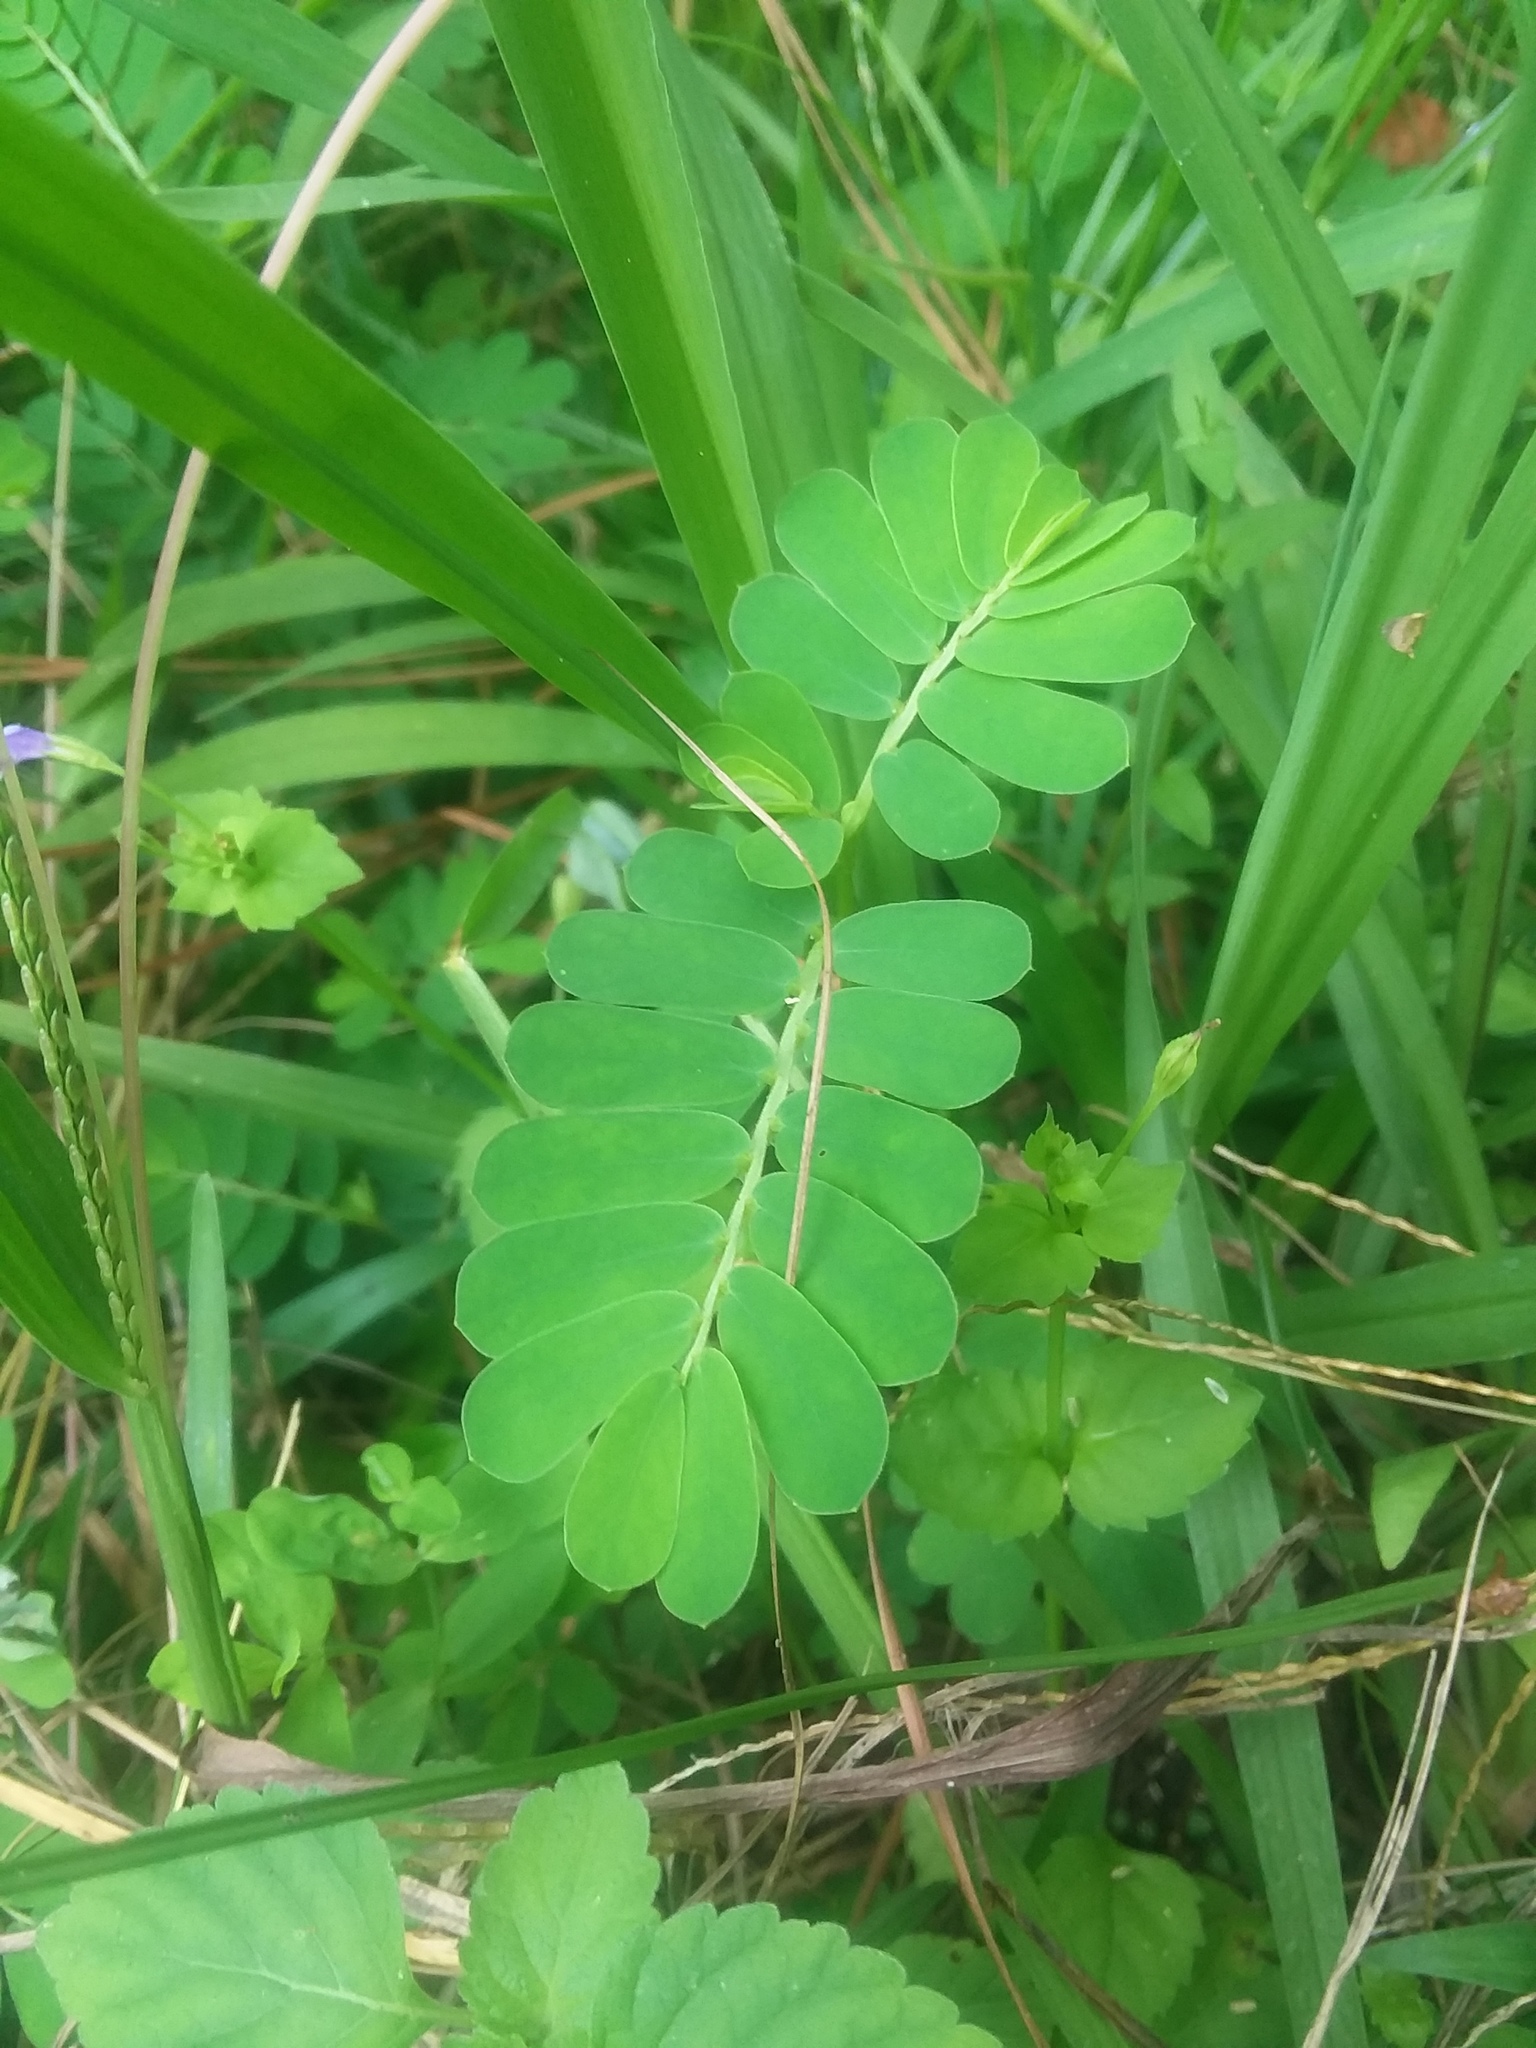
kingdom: Plantae
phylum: Tracheophyta
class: Magnoliopsida
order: Malpighiales
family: Phyllanthaceae
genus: Phyllanthus
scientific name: Phyllanthus urinaria
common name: Chamber bitter
